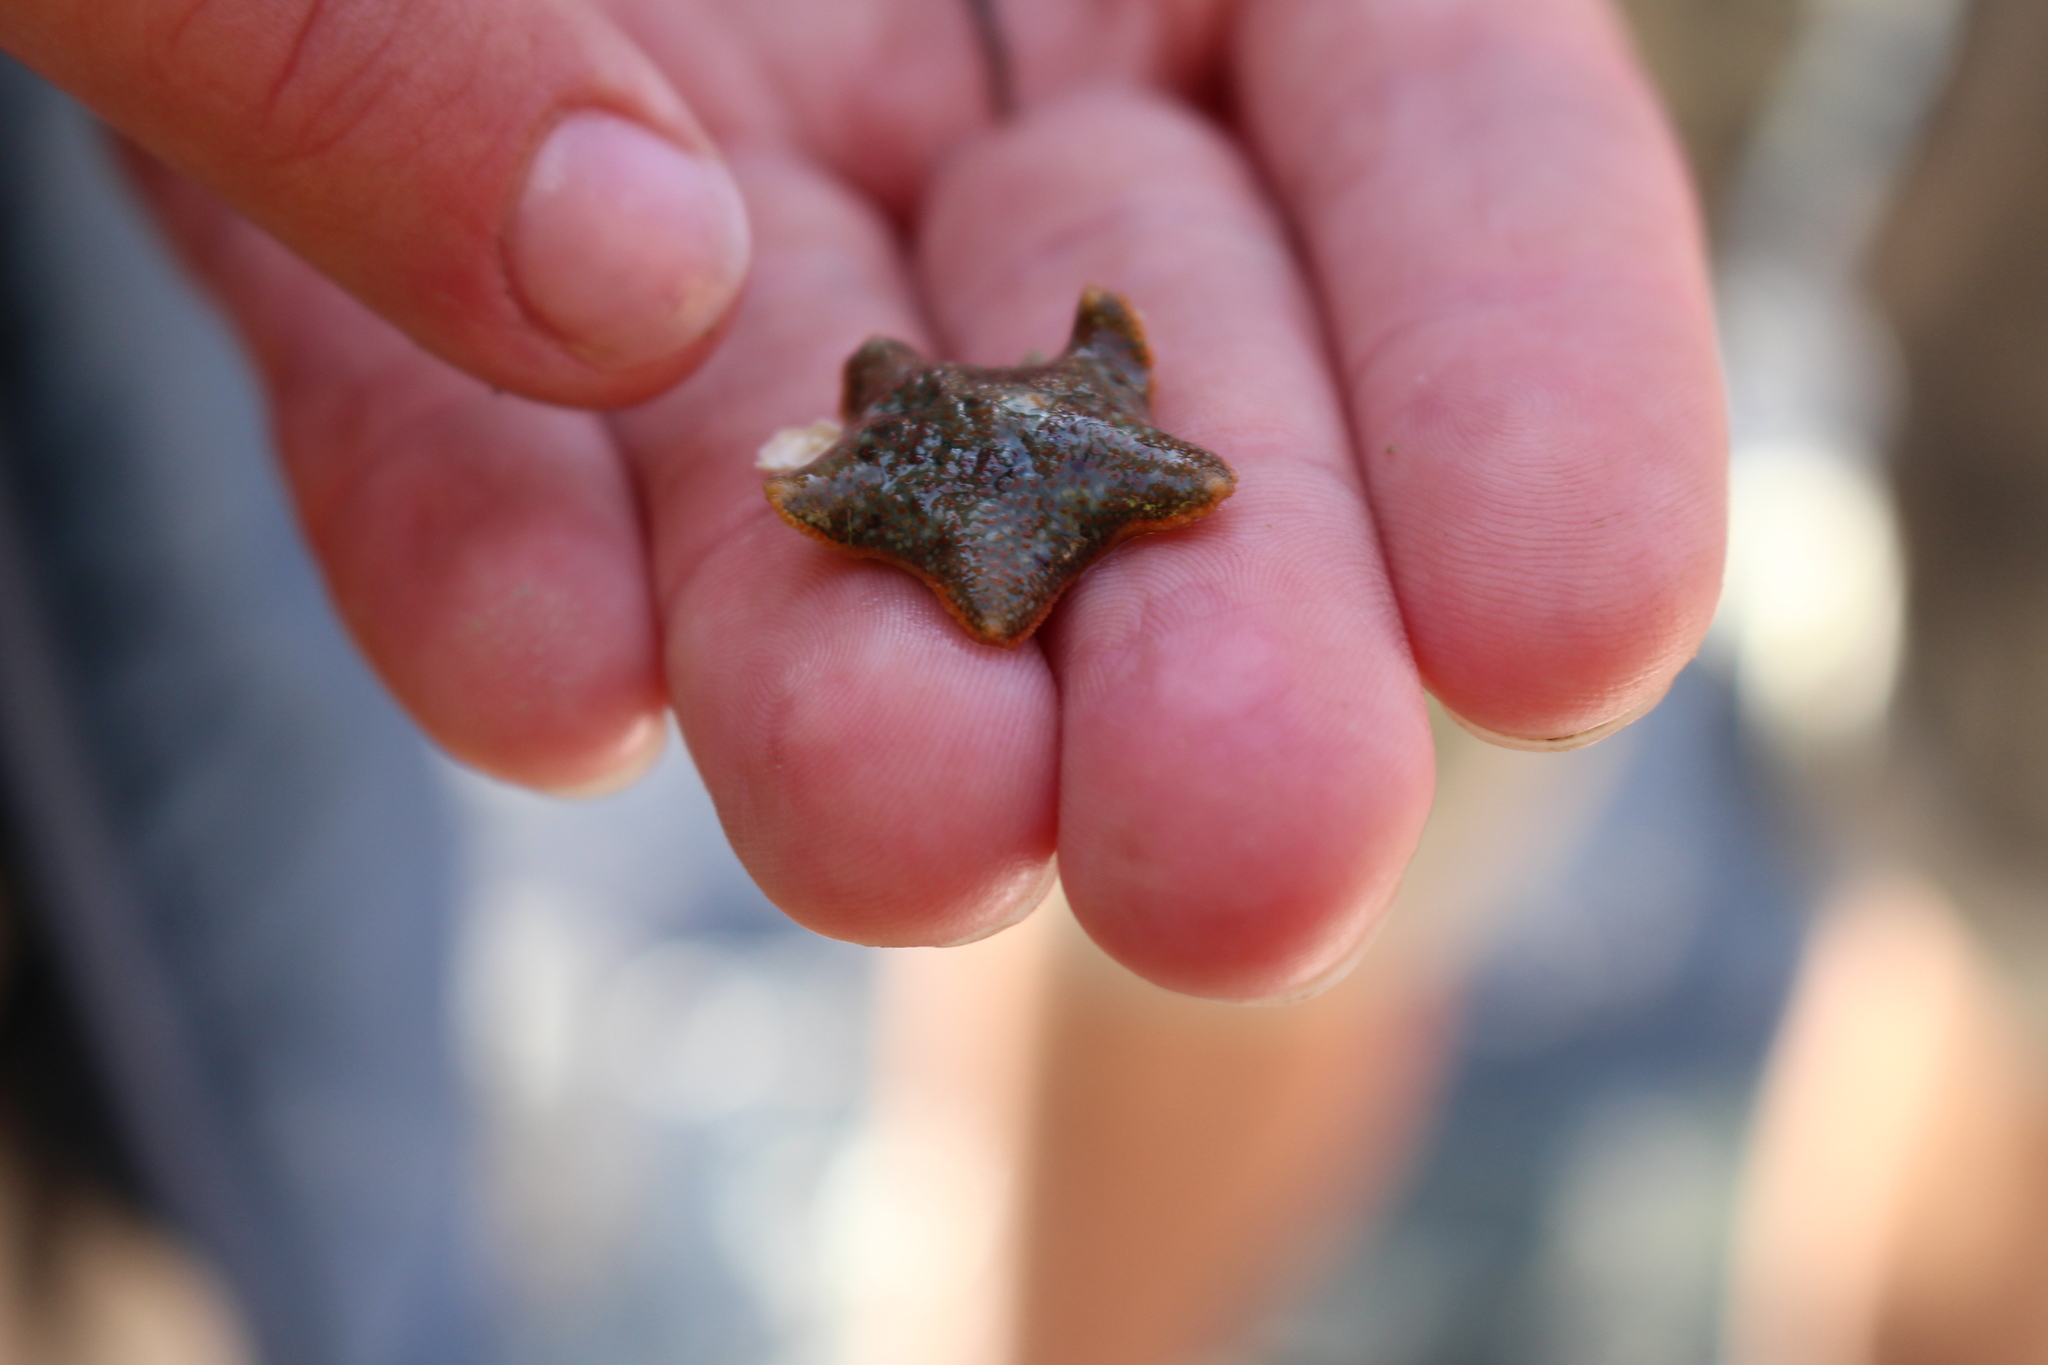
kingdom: Animalia
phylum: Echinodermata
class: Asteroidea
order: Valvatida
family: Asterinidae
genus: Asterina
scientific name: Asterina gibbosa
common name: Cushion star
